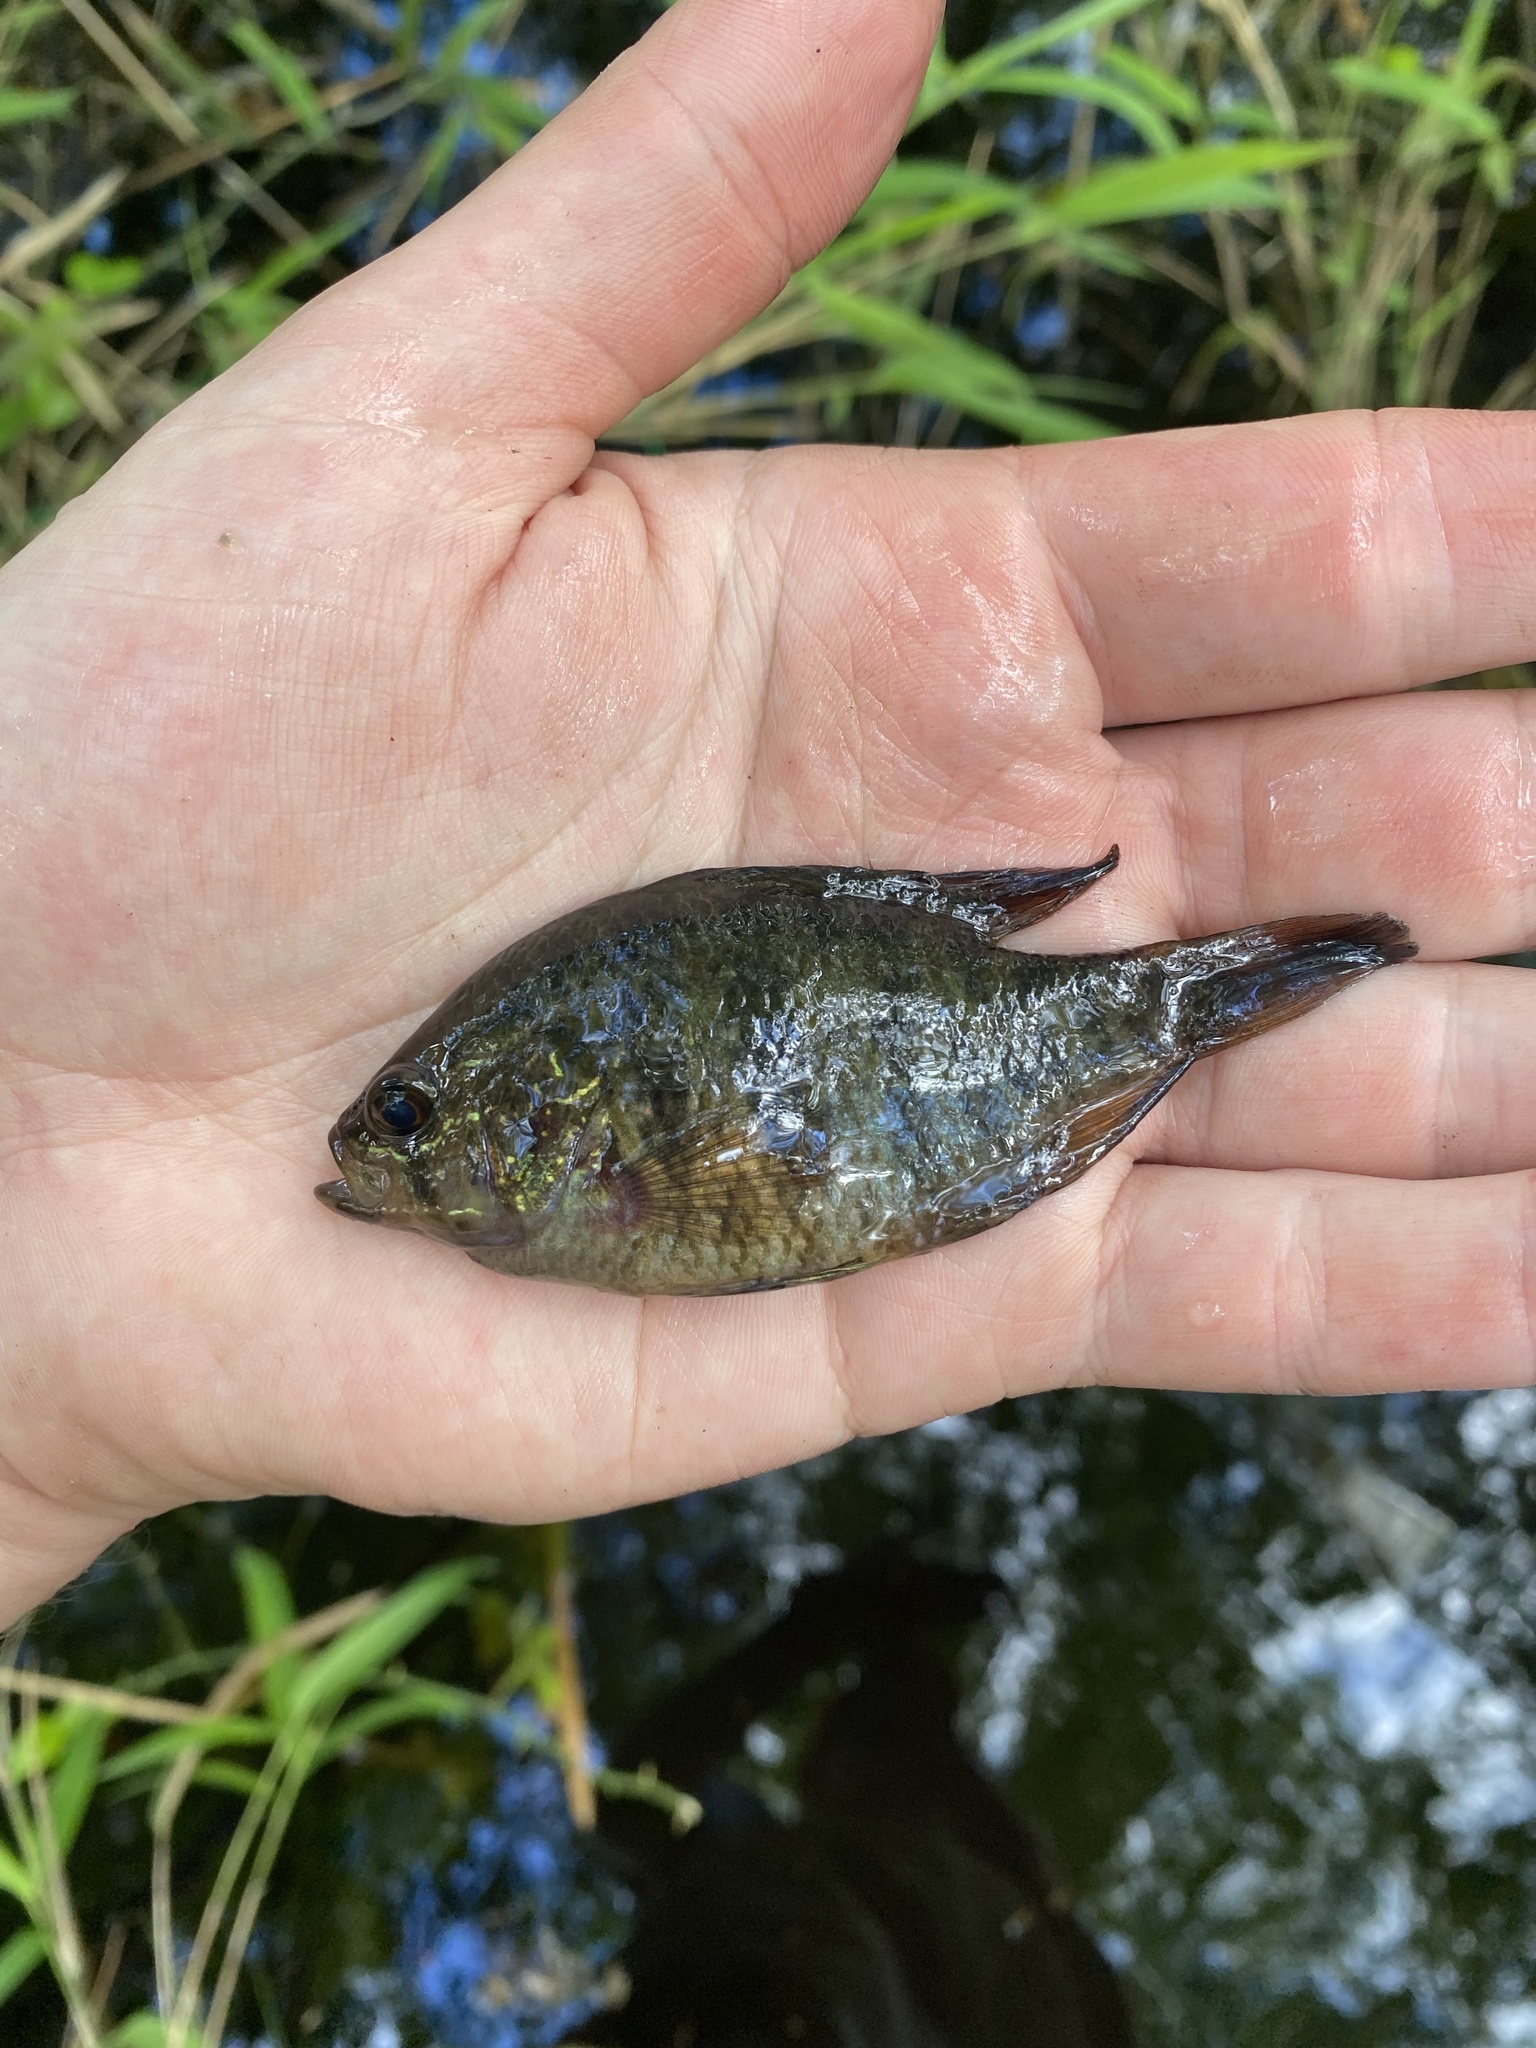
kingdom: Animalia
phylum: Chordata
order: Perciformes
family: Centrarchidae
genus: Enneacanthus
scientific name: Enneacanthus obesus
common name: Banded sunfish
